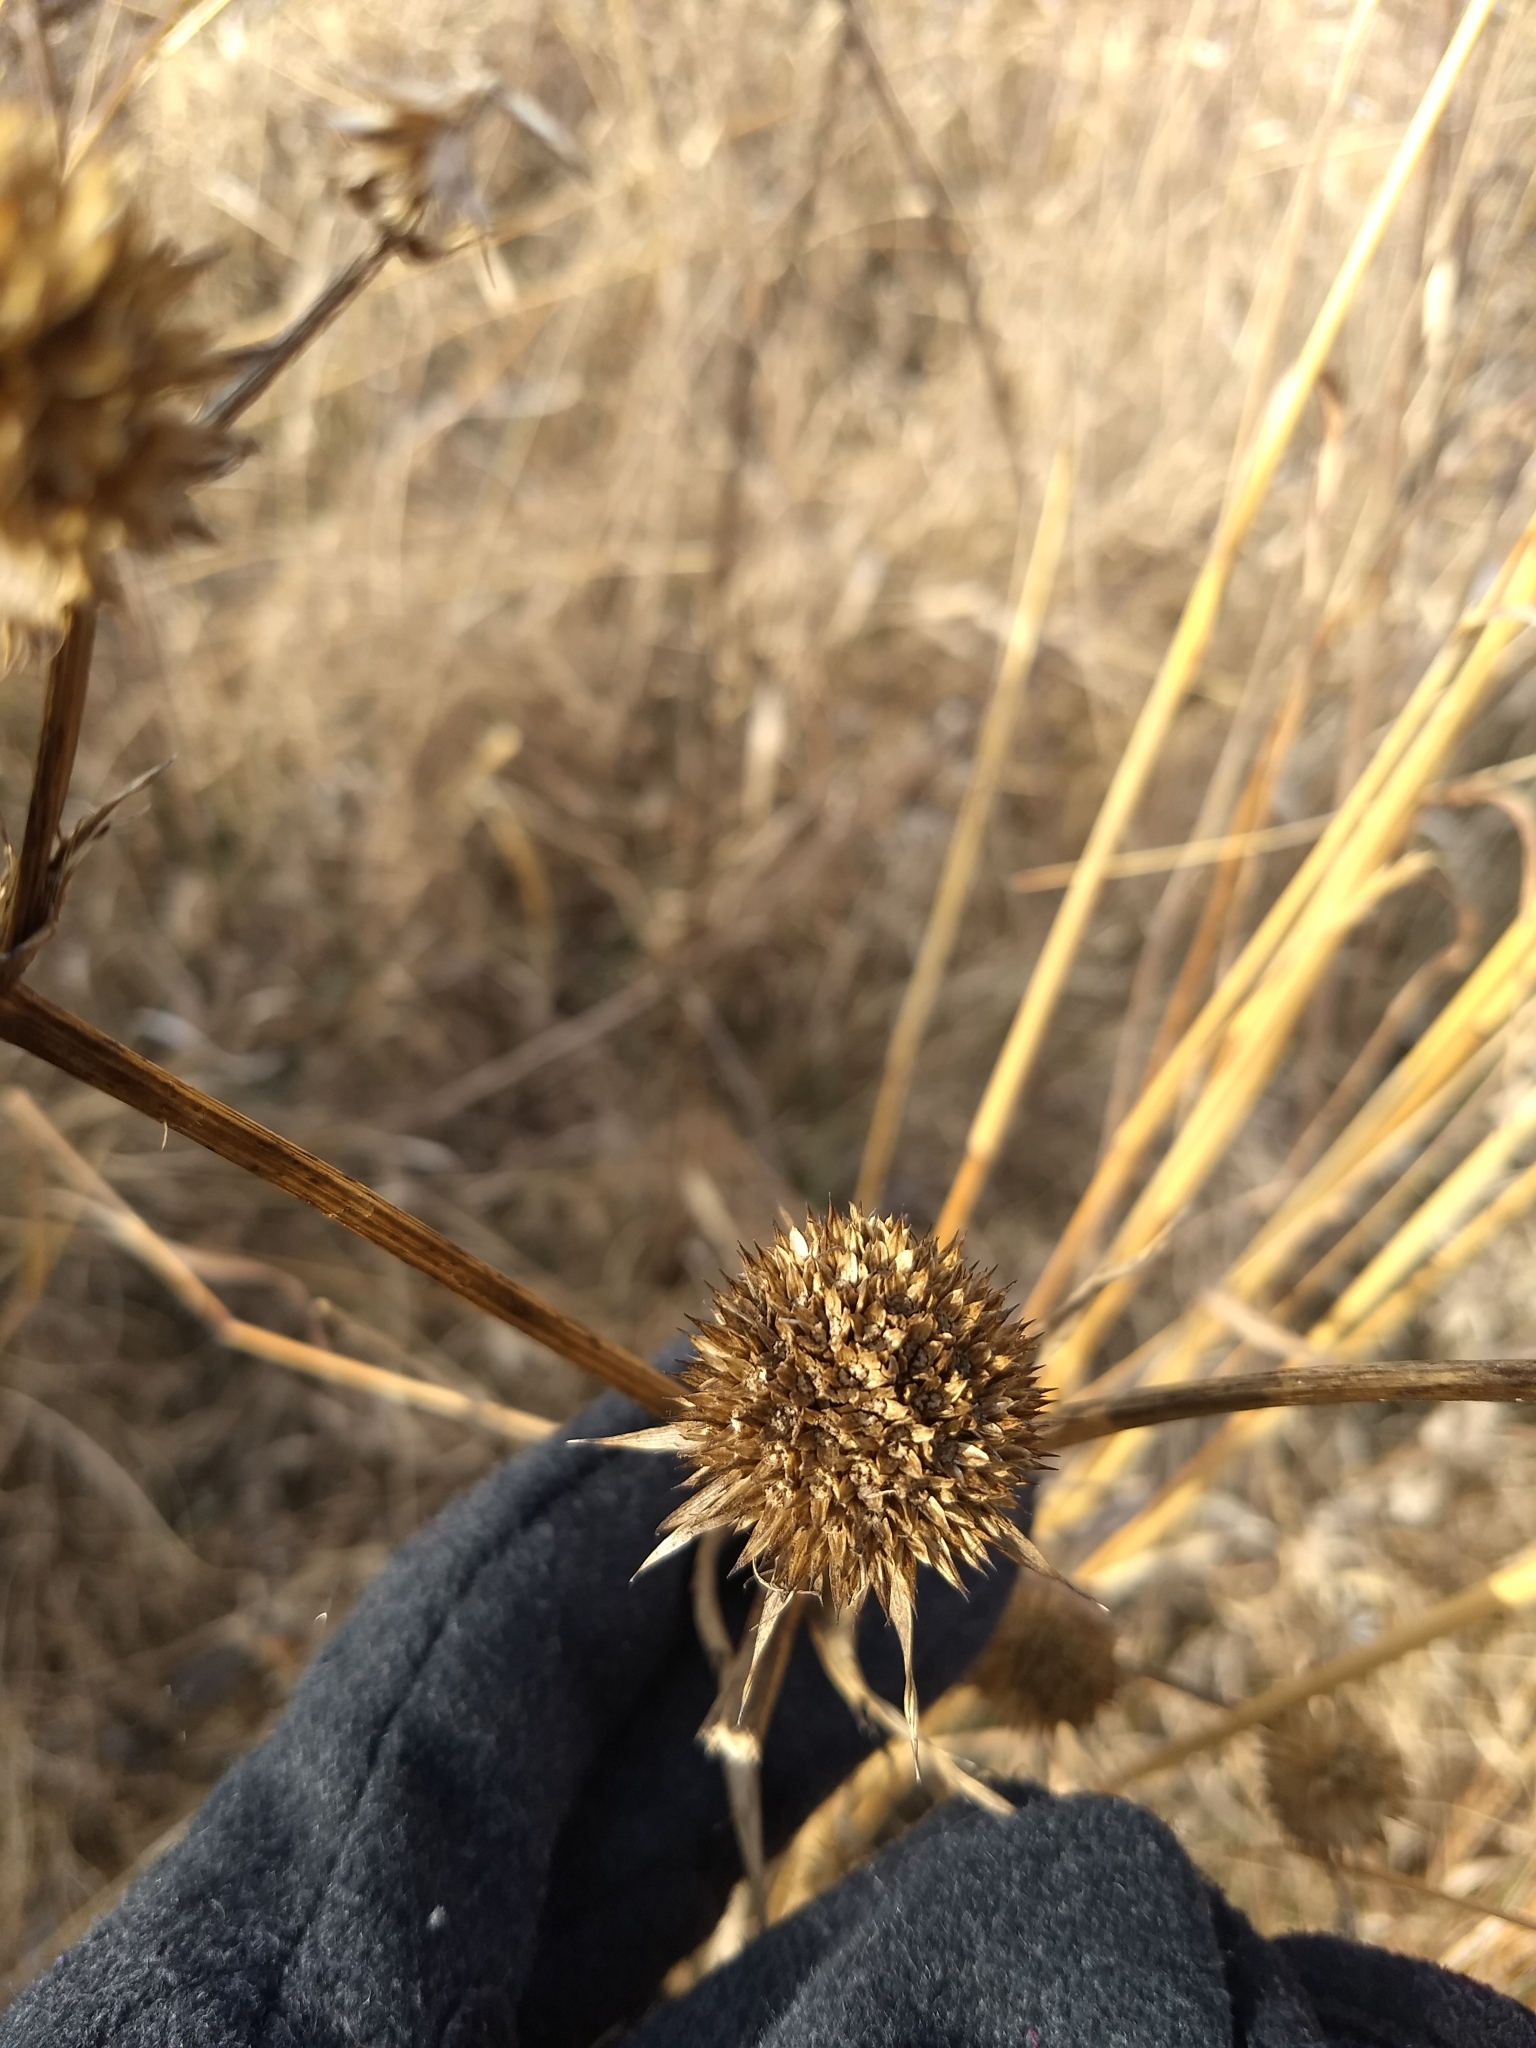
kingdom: Plantae
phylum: Tracheophyta
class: Magnoliopsida
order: Apiales
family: Apiaceae
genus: Eryngium
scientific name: Eryngium yuccifolium
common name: Button eryngo
